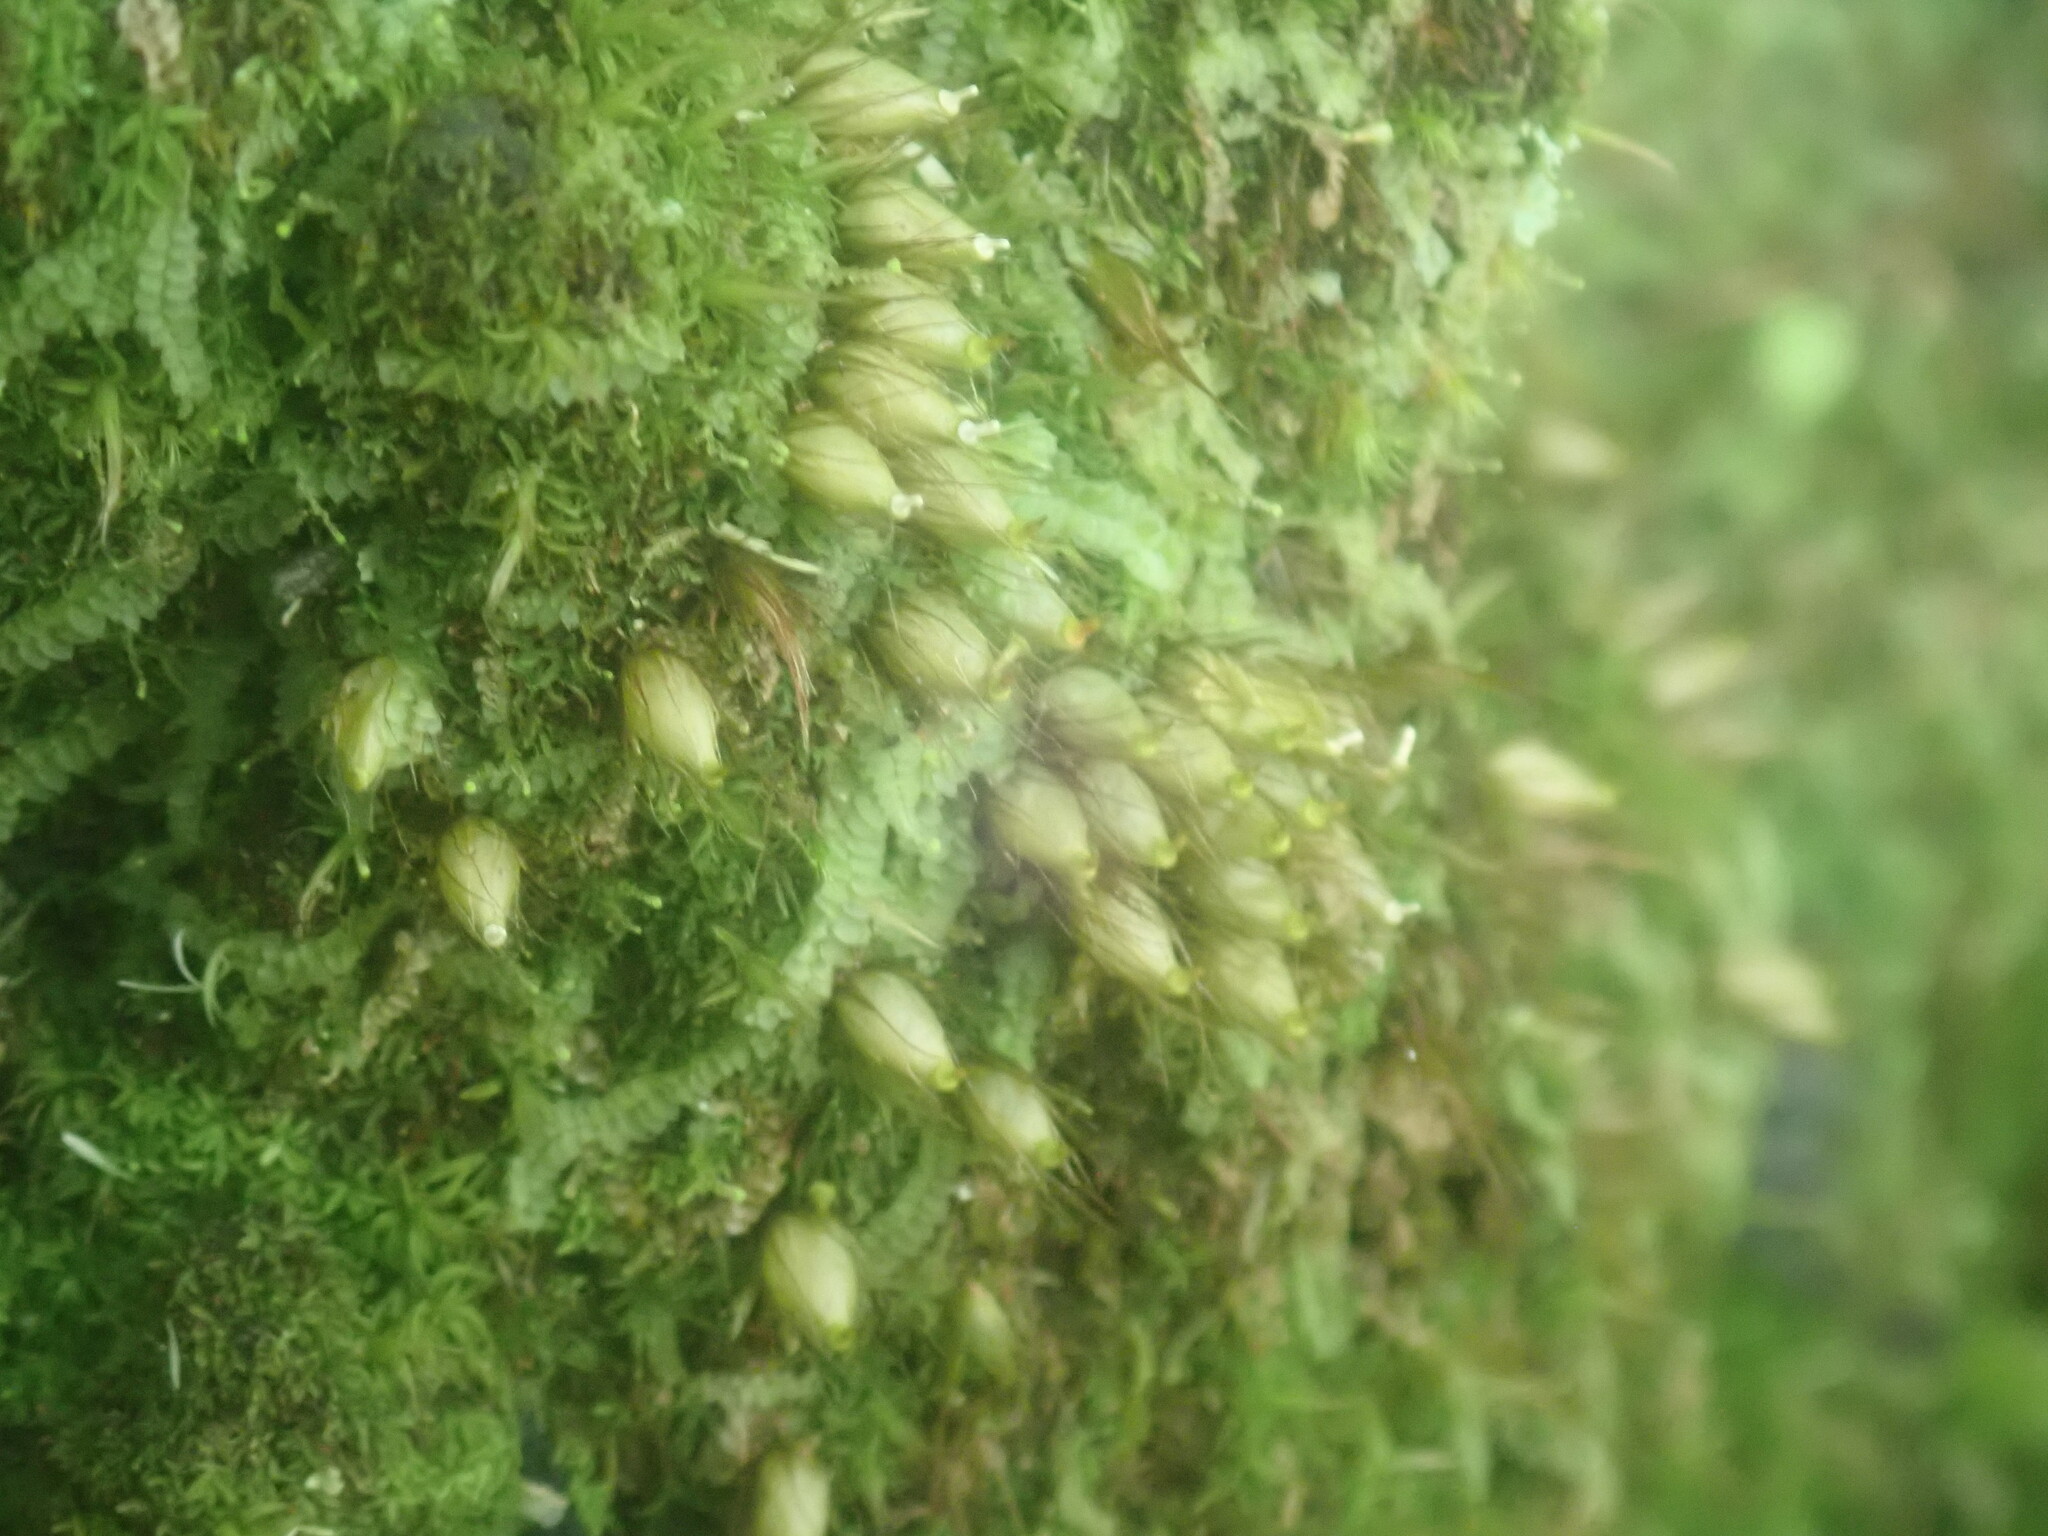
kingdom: Plantae
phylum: Bryophyta
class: Bryopsida
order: Diphysciales
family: Diphysciaceae
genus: Diphyscium
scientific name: Diphyscium foliosum
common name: Nut moss
